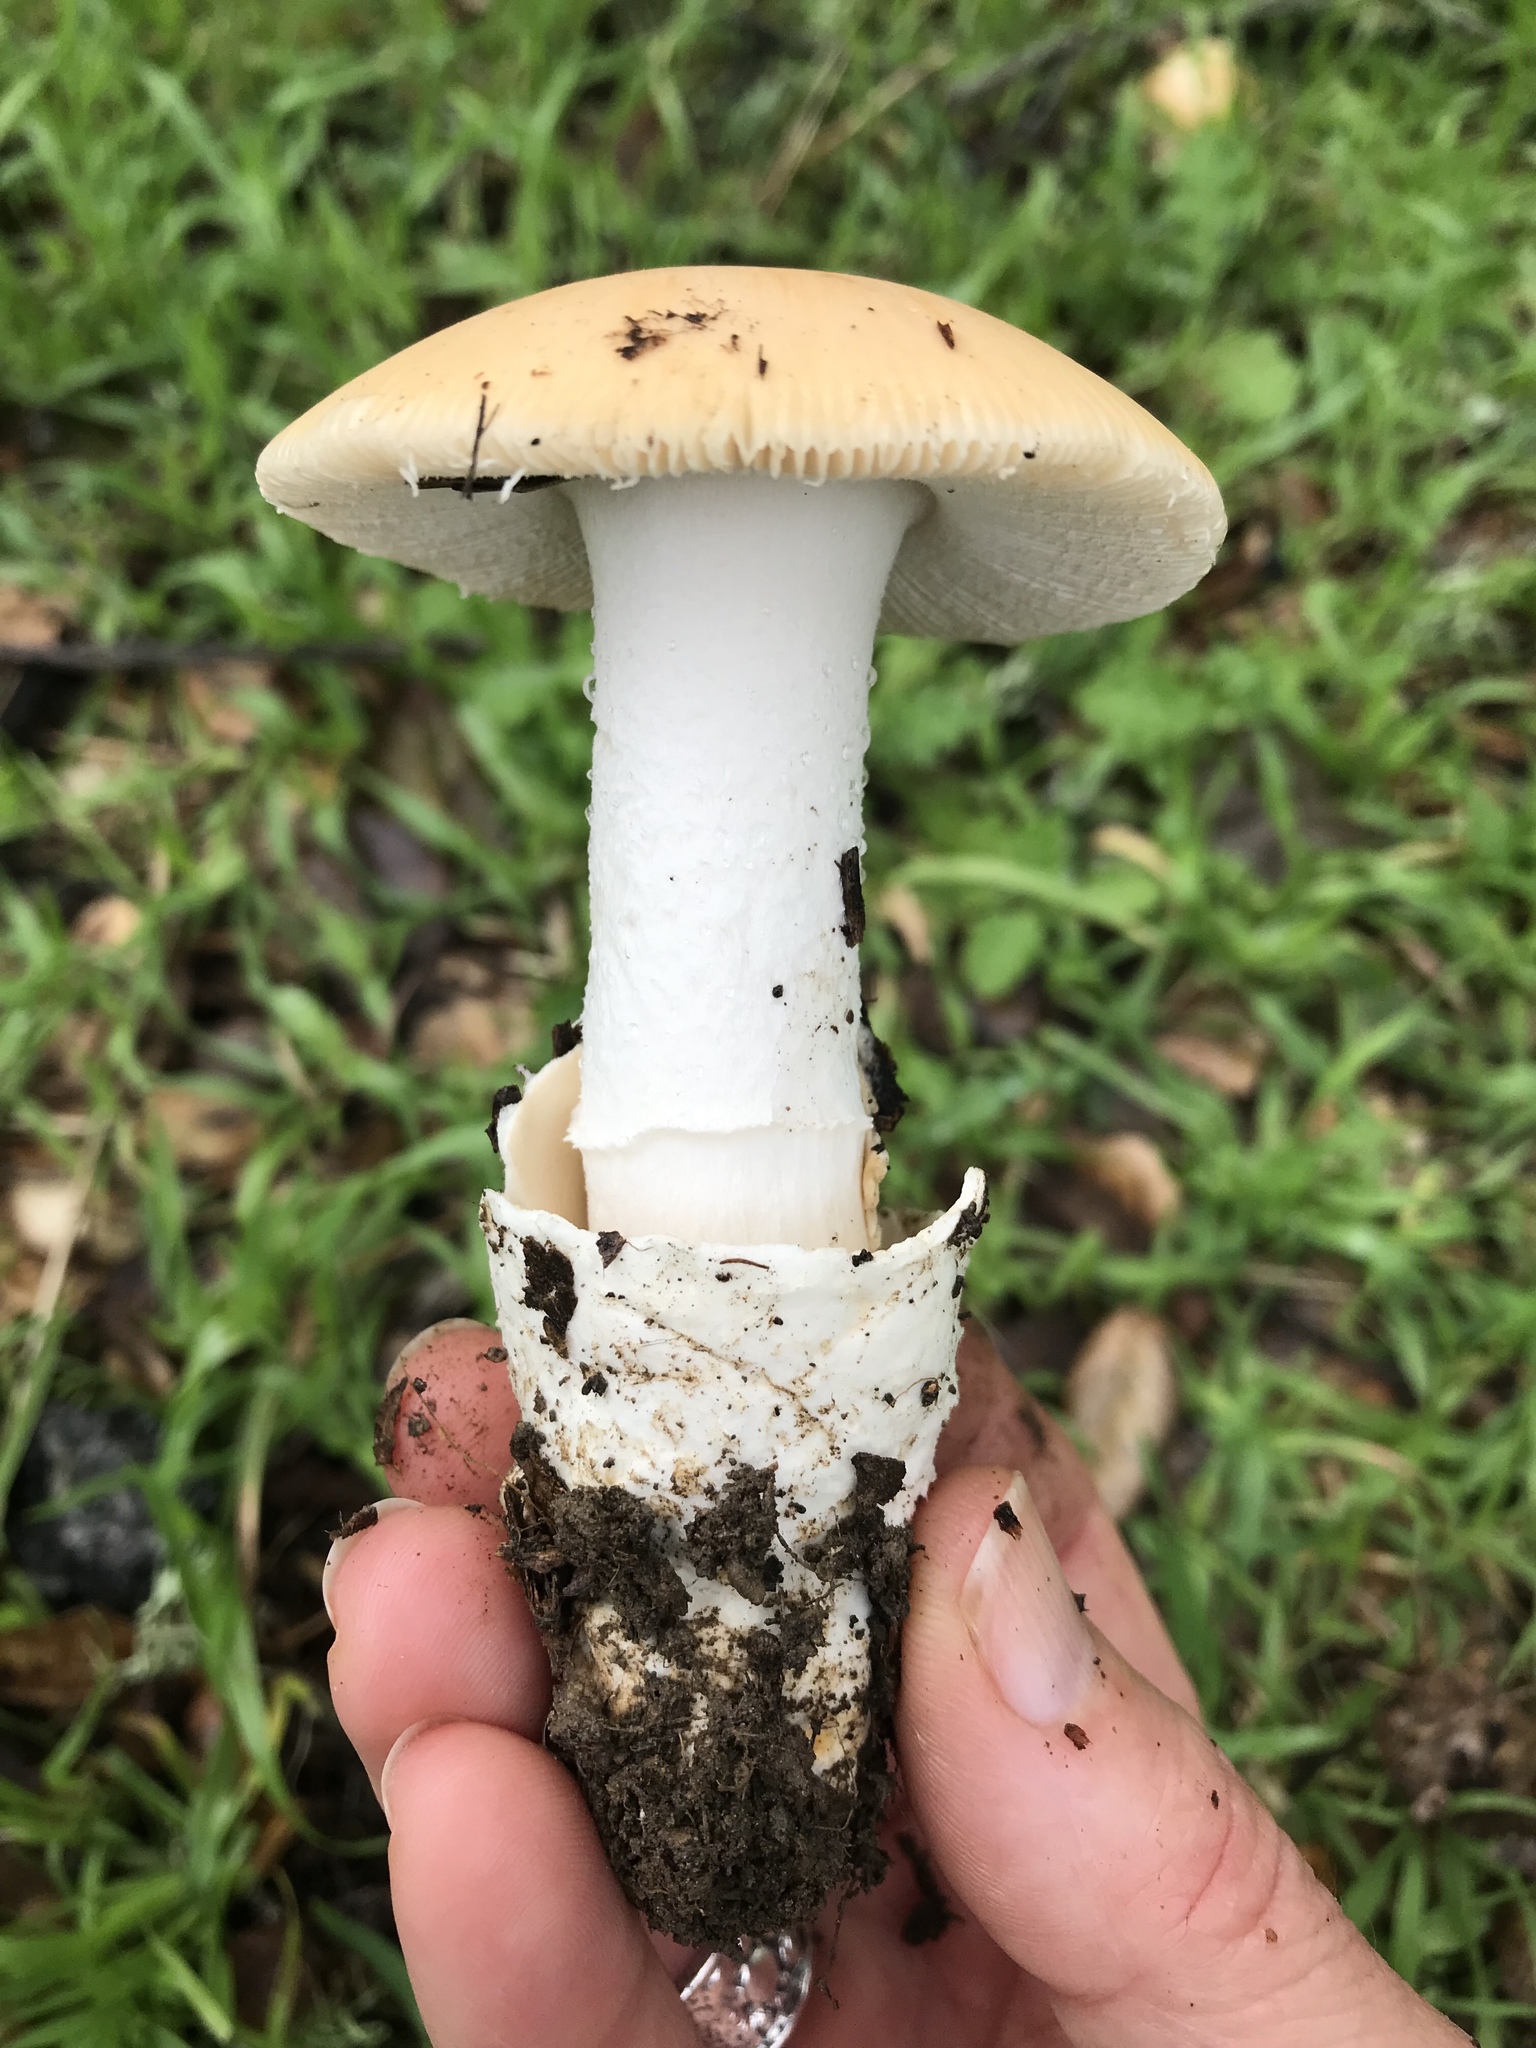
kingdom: Fungi
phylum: Basidiomycota
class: Agaricomycetes
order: Agaricales
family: Amanitaceae
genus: Amanita
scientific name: Amanita velosa
